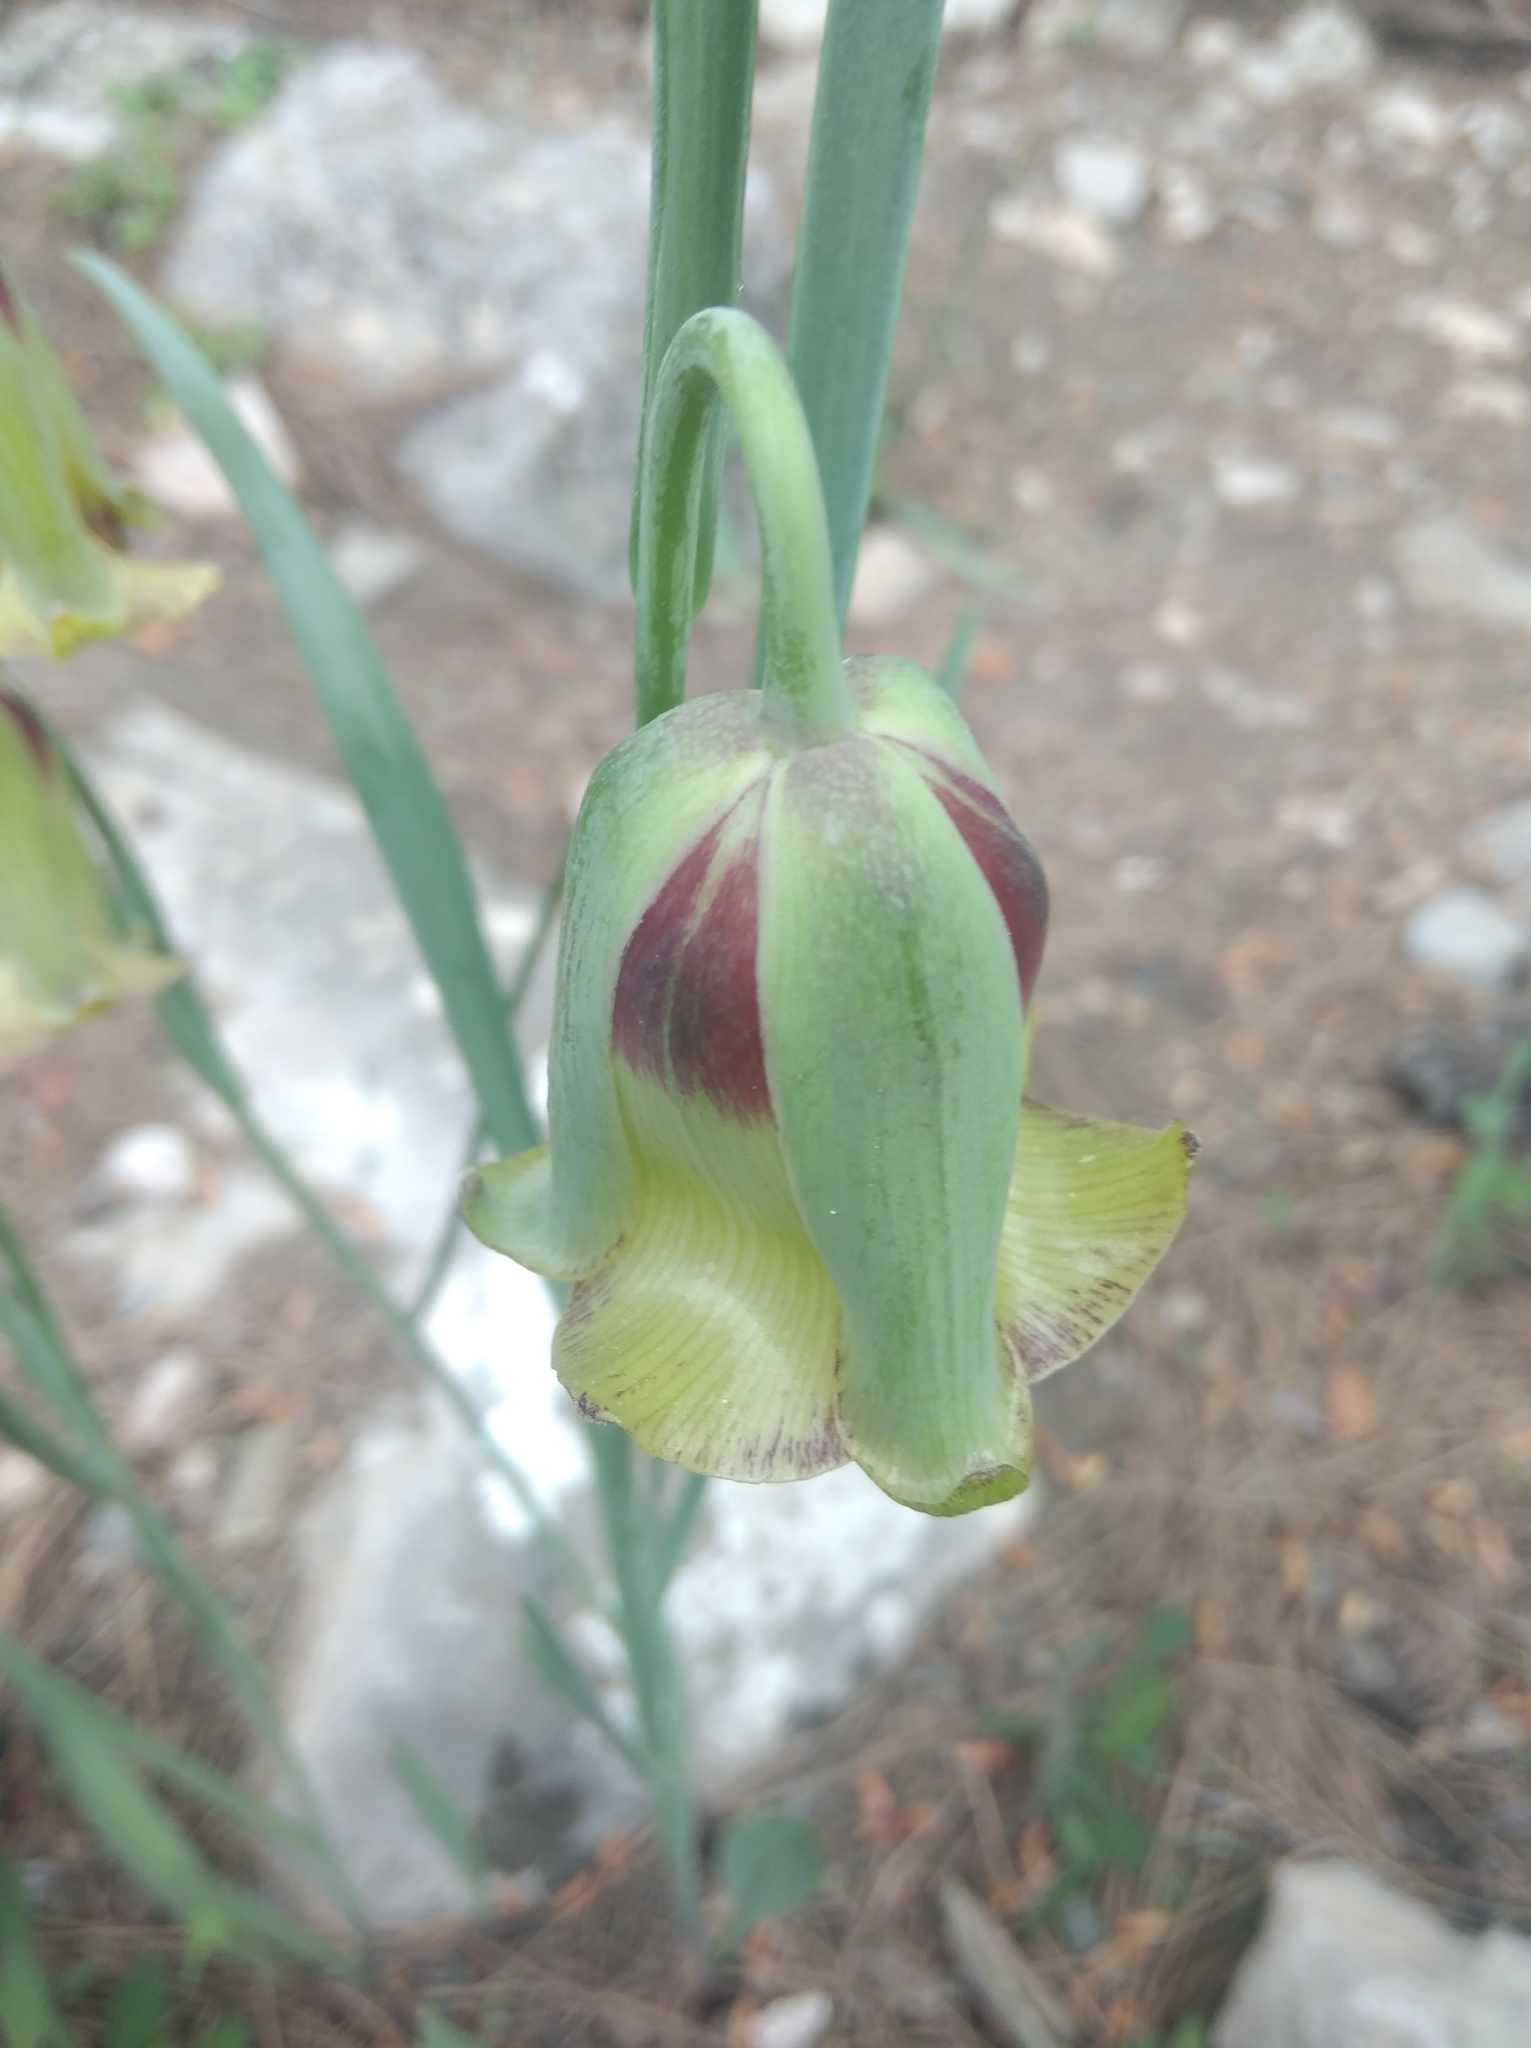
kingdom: Plantae
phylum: Tracheophyta
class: Liliopsida
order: Liliales
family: Liliaceae
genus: Fritillaria
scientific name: Fritillaria acmopetala
